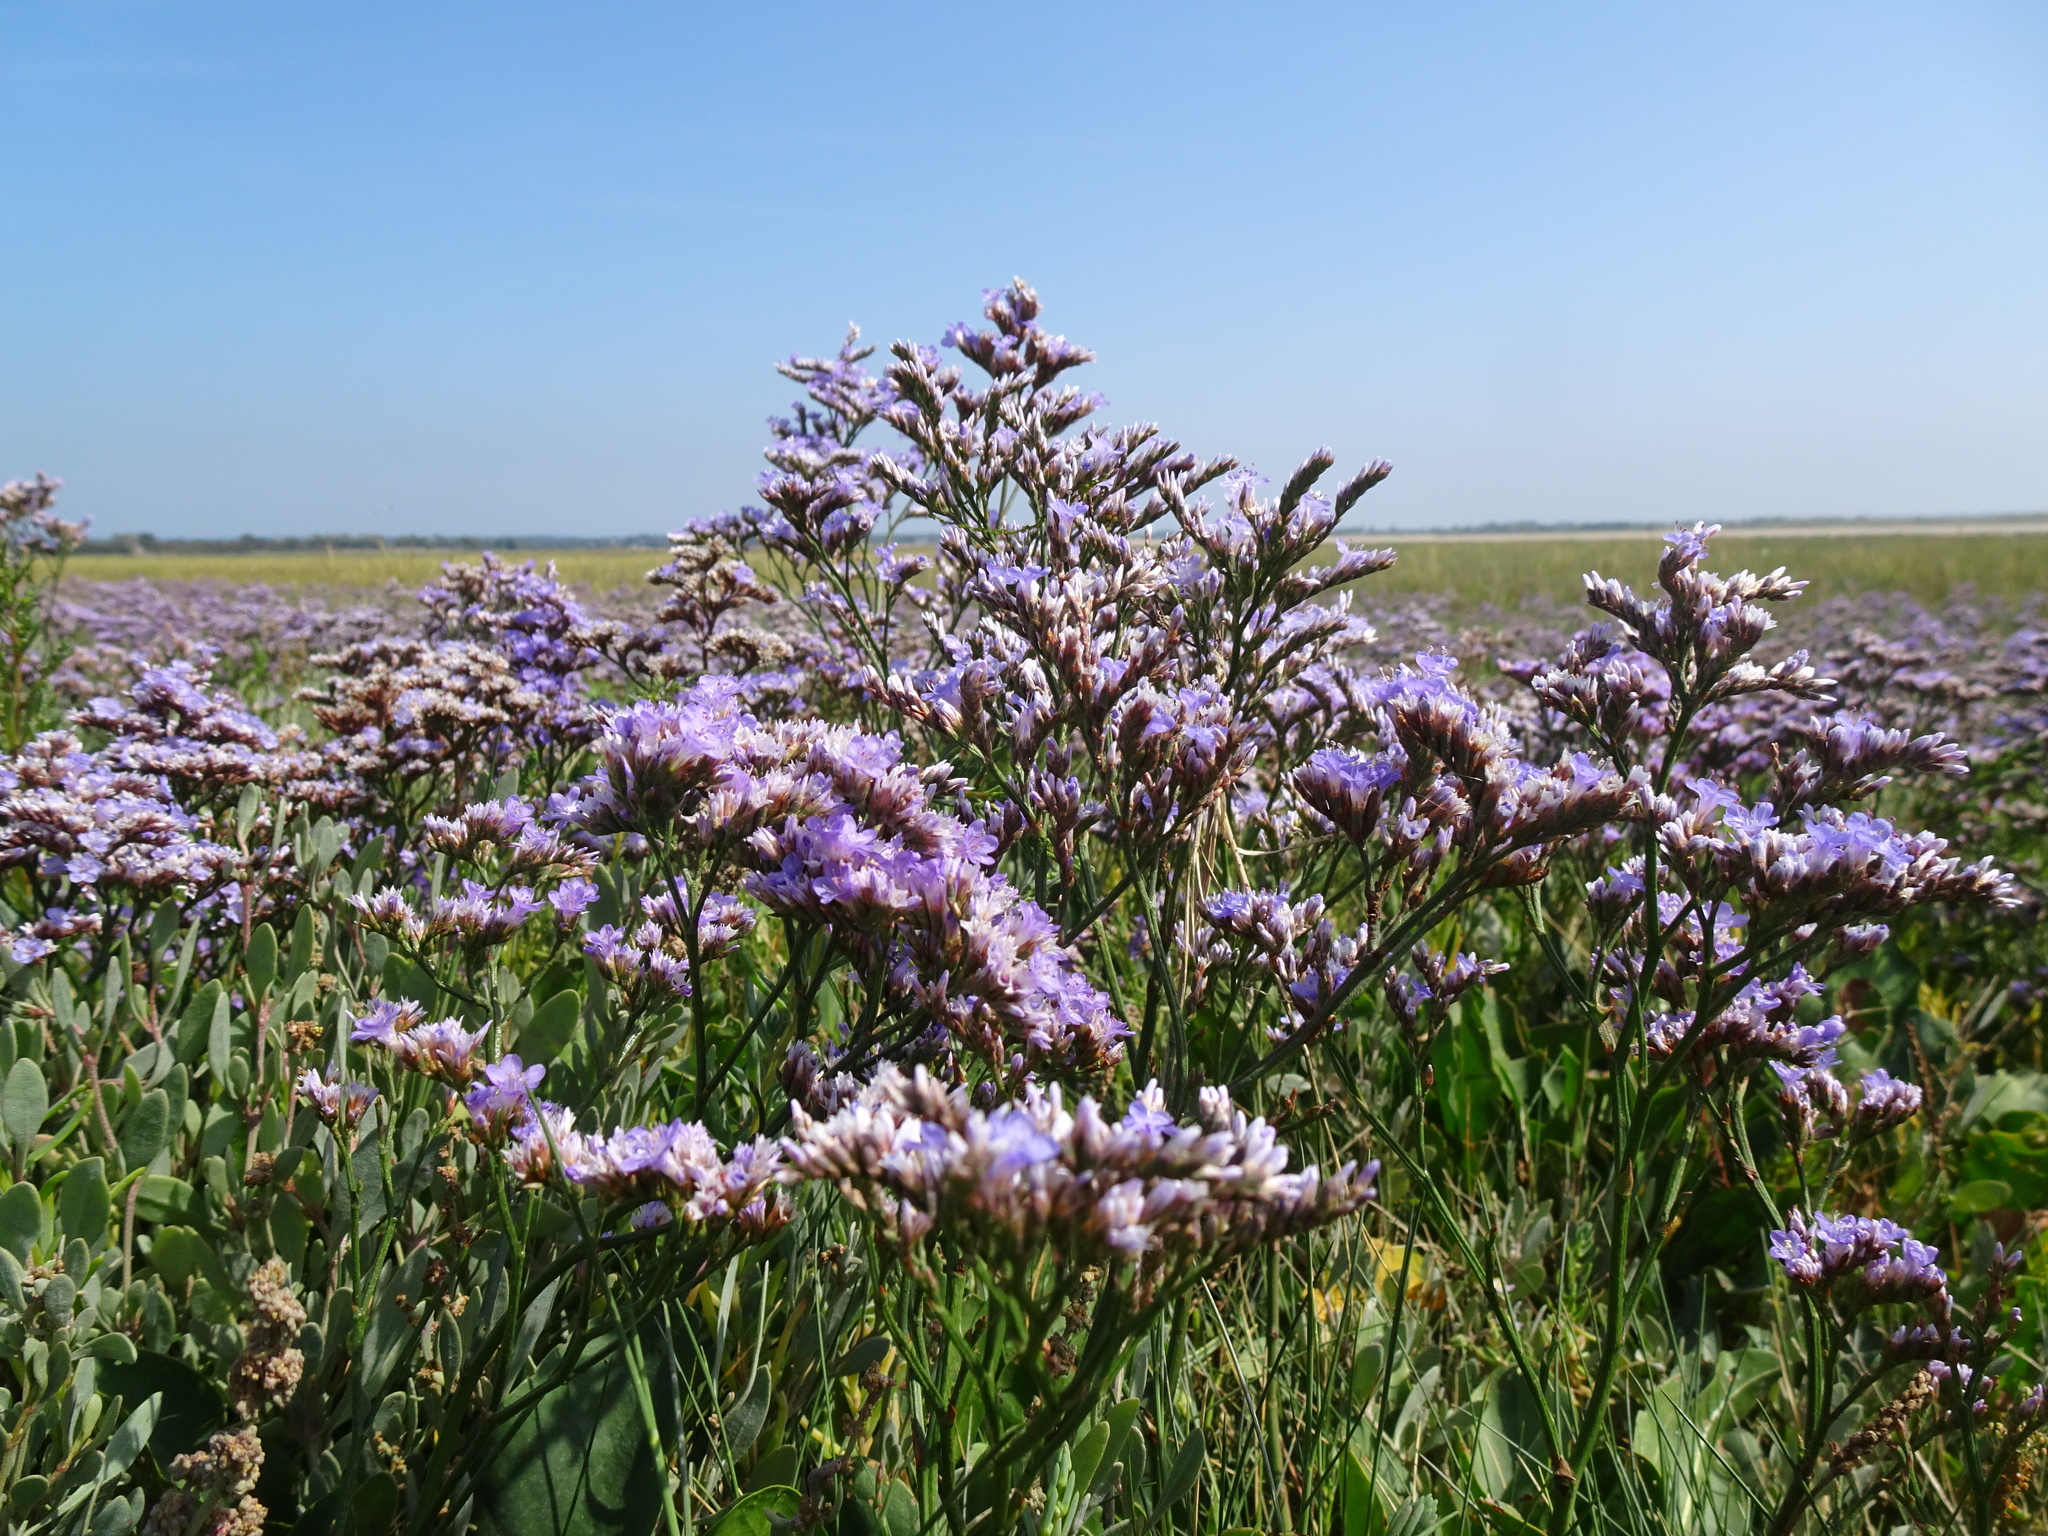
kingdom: Plantae
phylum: Tracheophyta
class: Magnoliopsida
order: Caryophyllales
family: Plumbaginaceae
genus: Limonium
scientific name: Limonium vulgare
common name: Common sea-lavender
